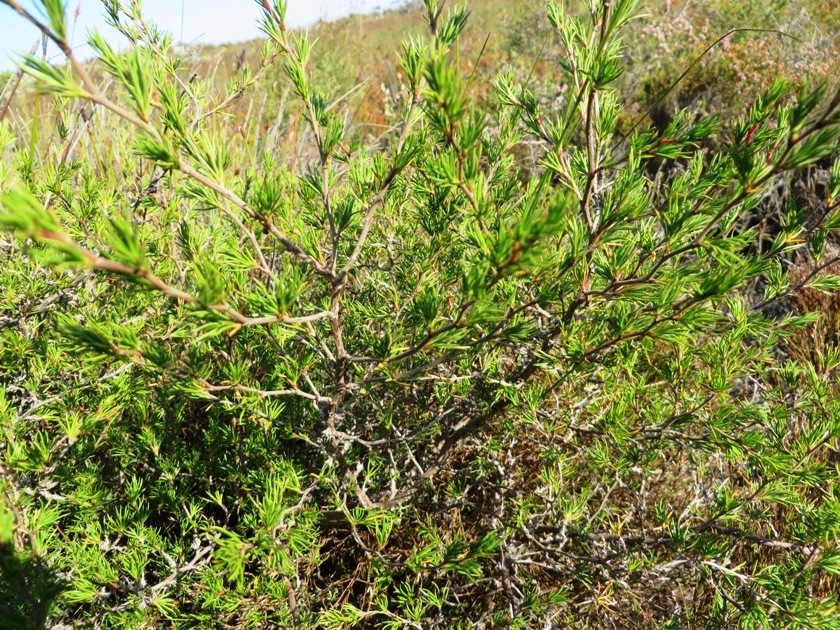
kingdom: Plantae
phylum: Tracheophyta
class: Magnoliopsida
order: Rosales
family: Rosaceae
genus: Cliffortia
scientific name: Cliffortia atrata
